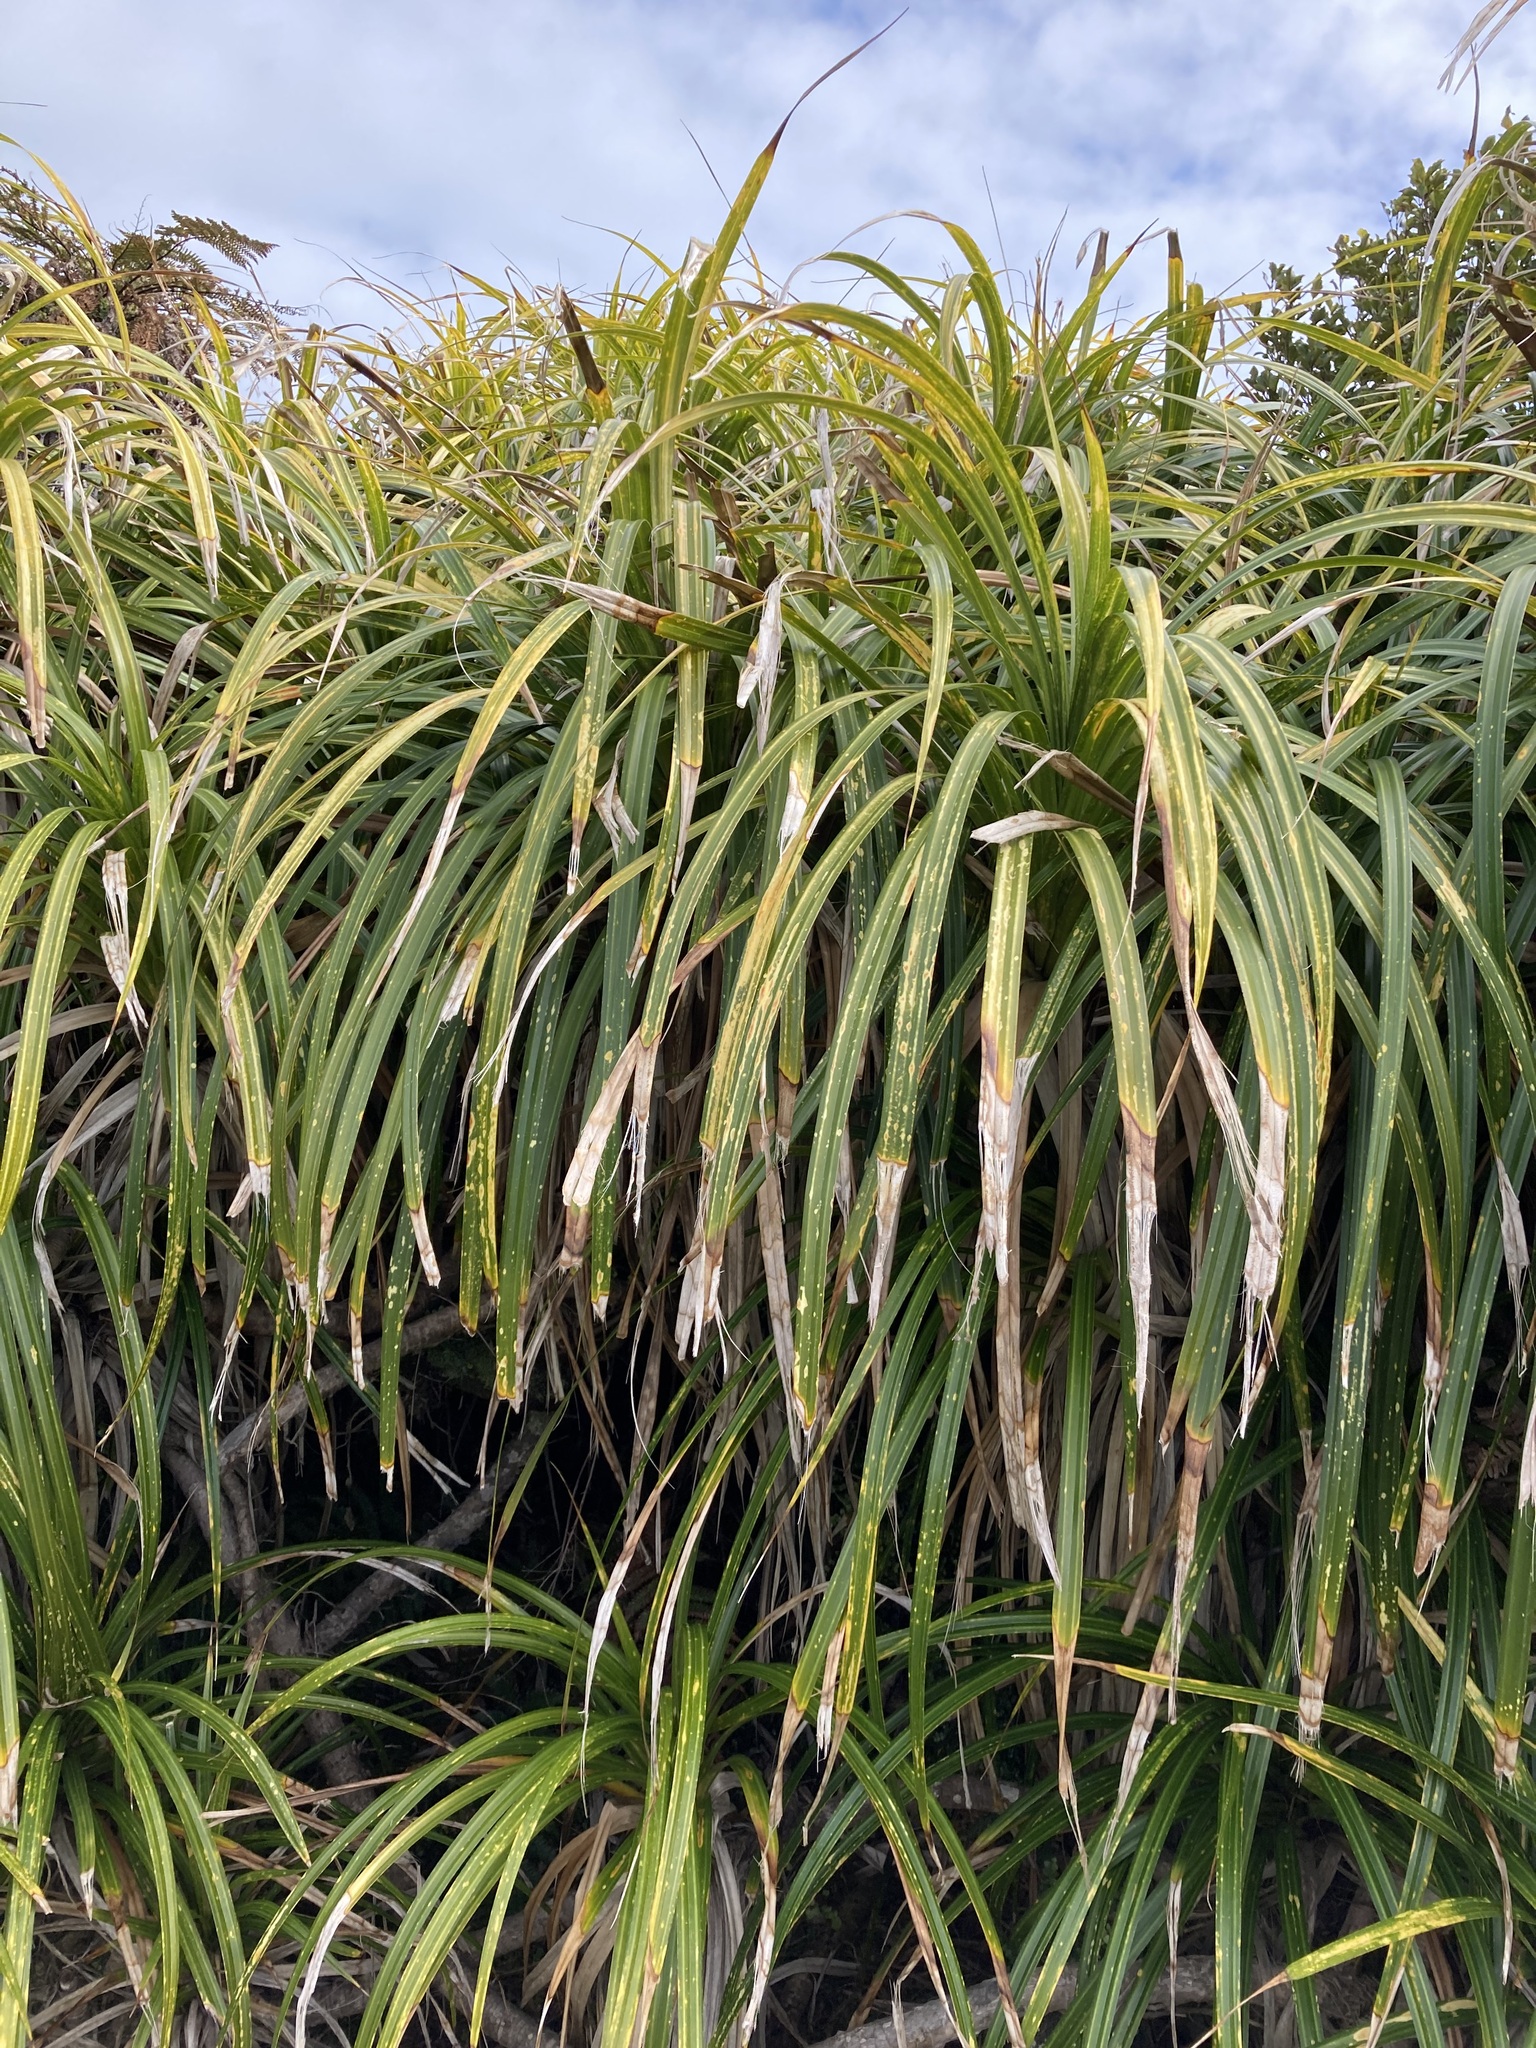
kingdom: Plantae
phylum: Tracheophyta
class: Liliopsida
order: Pandanales
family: Pandanaceae
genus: Freycinetia
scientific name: Freycinetia banksii
